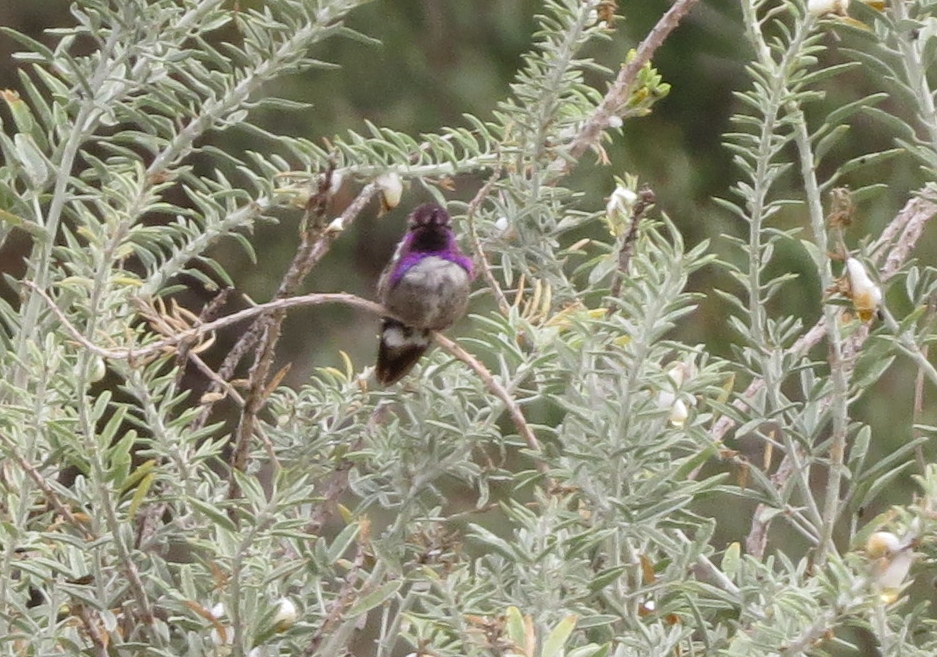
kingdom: Animalia
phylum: Chordata
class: Aves
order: Apodiformes
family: Trochilidae
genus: Calypte
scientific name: Calypte costae
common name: Costa's hummingbird
